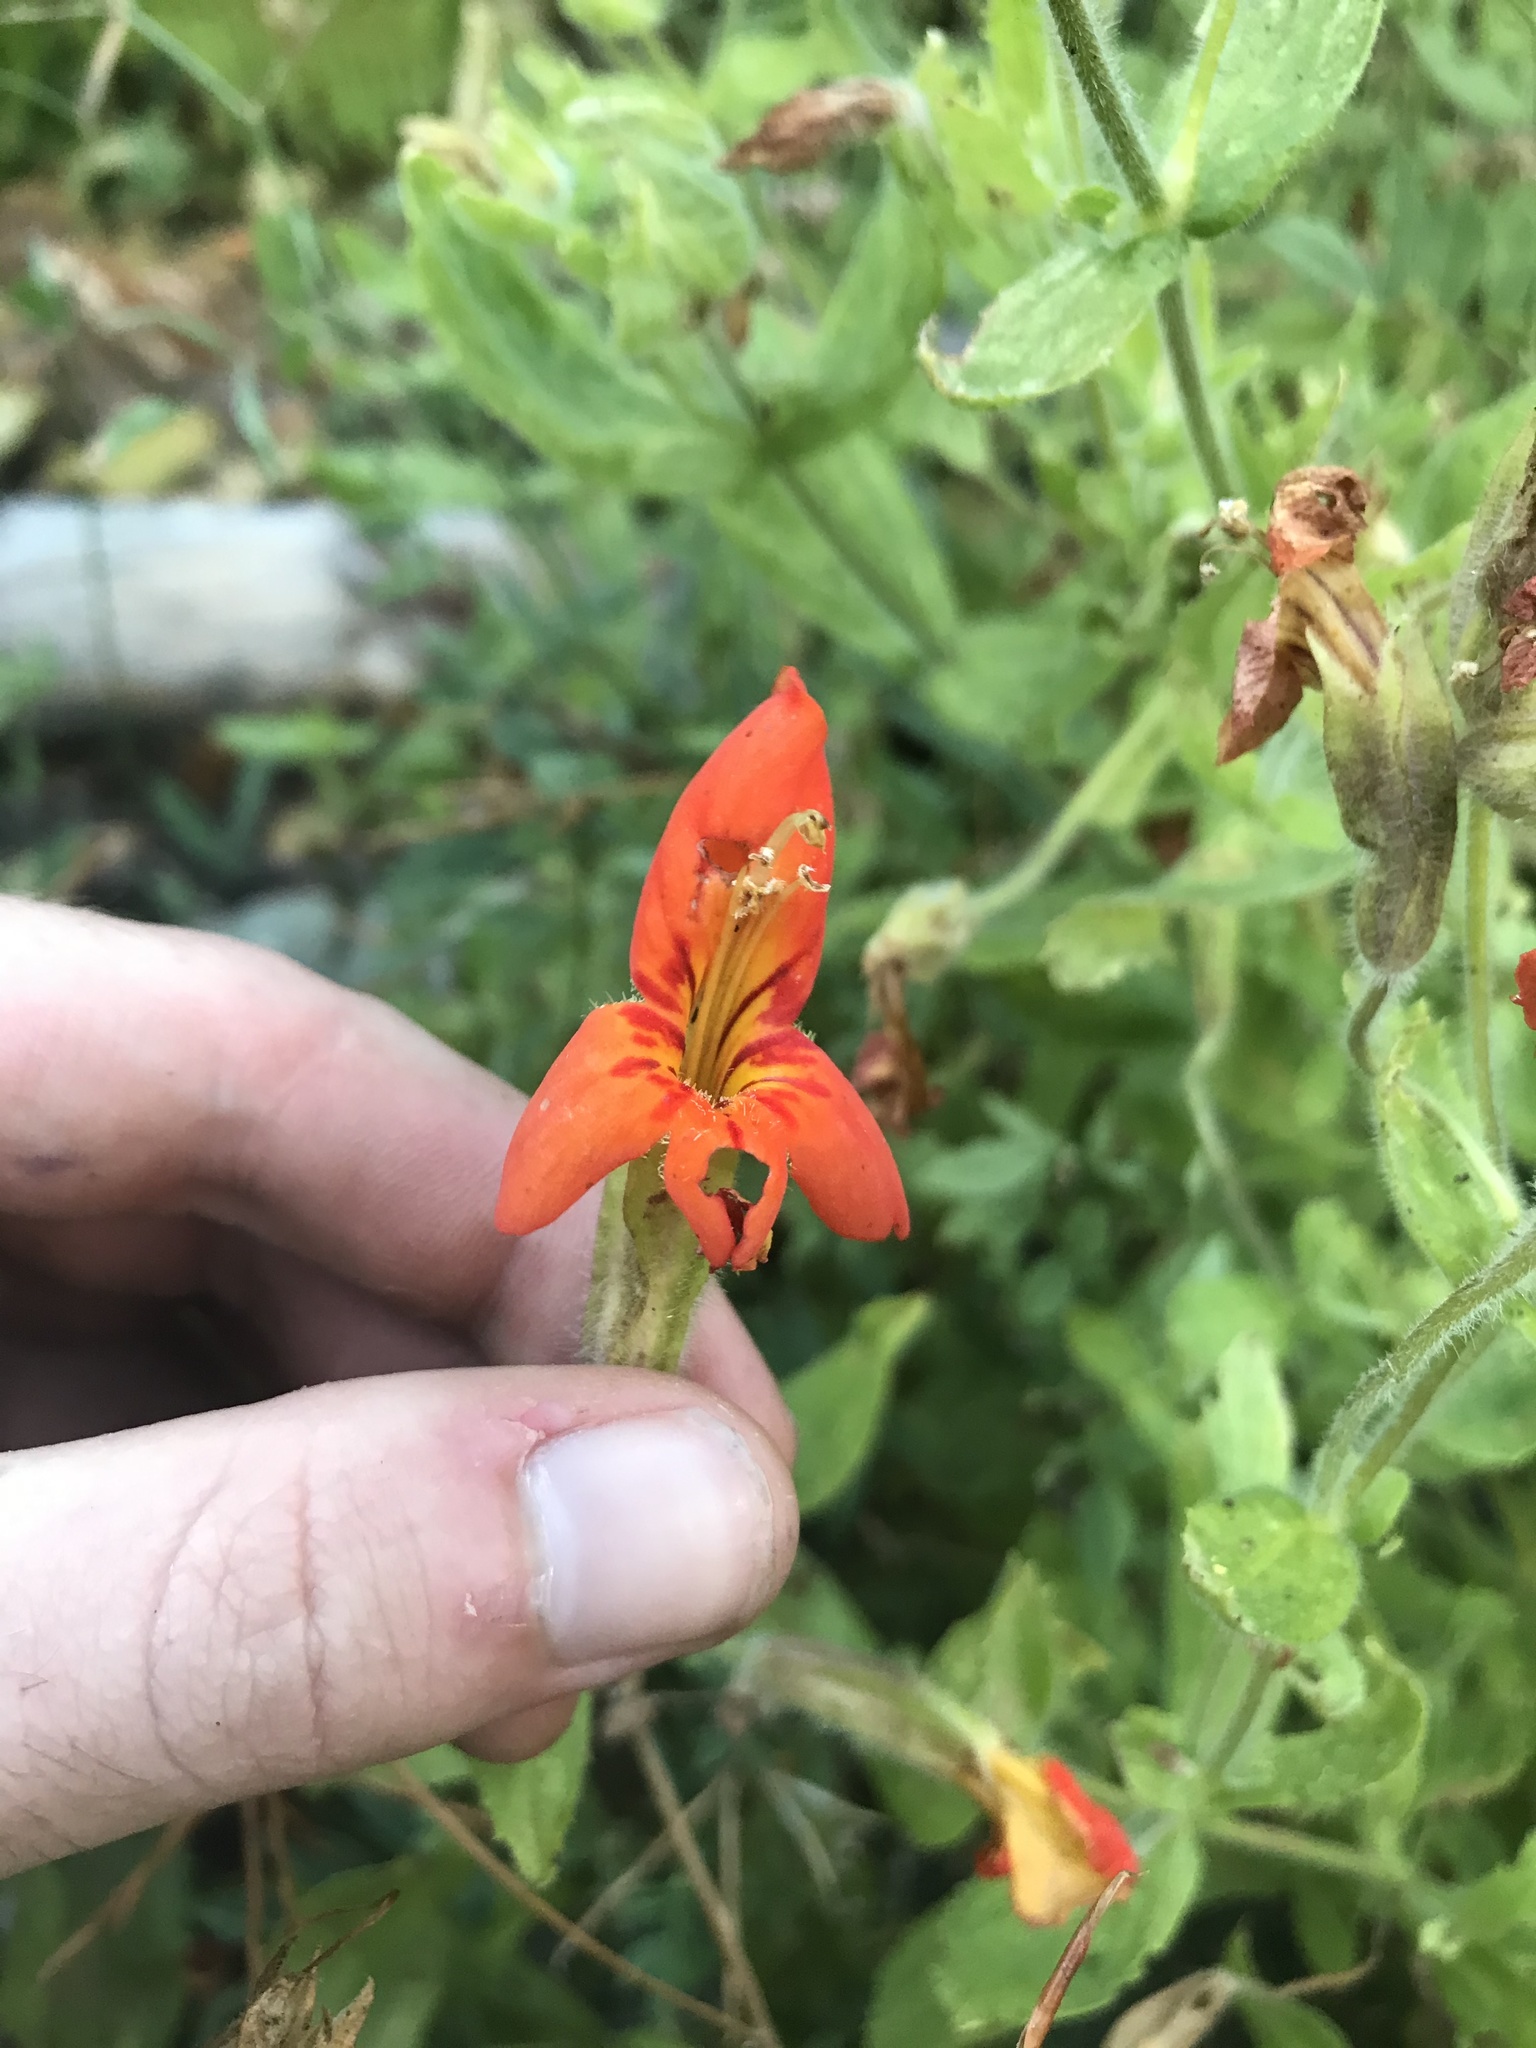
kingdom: Plantae
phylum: Tracheophyta
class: Magnoliopsida
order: Lamiales
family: Phrymaceae
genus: Erythranthe
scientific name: Erythranthe cardinalis
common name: Scarlet monkey-flower
